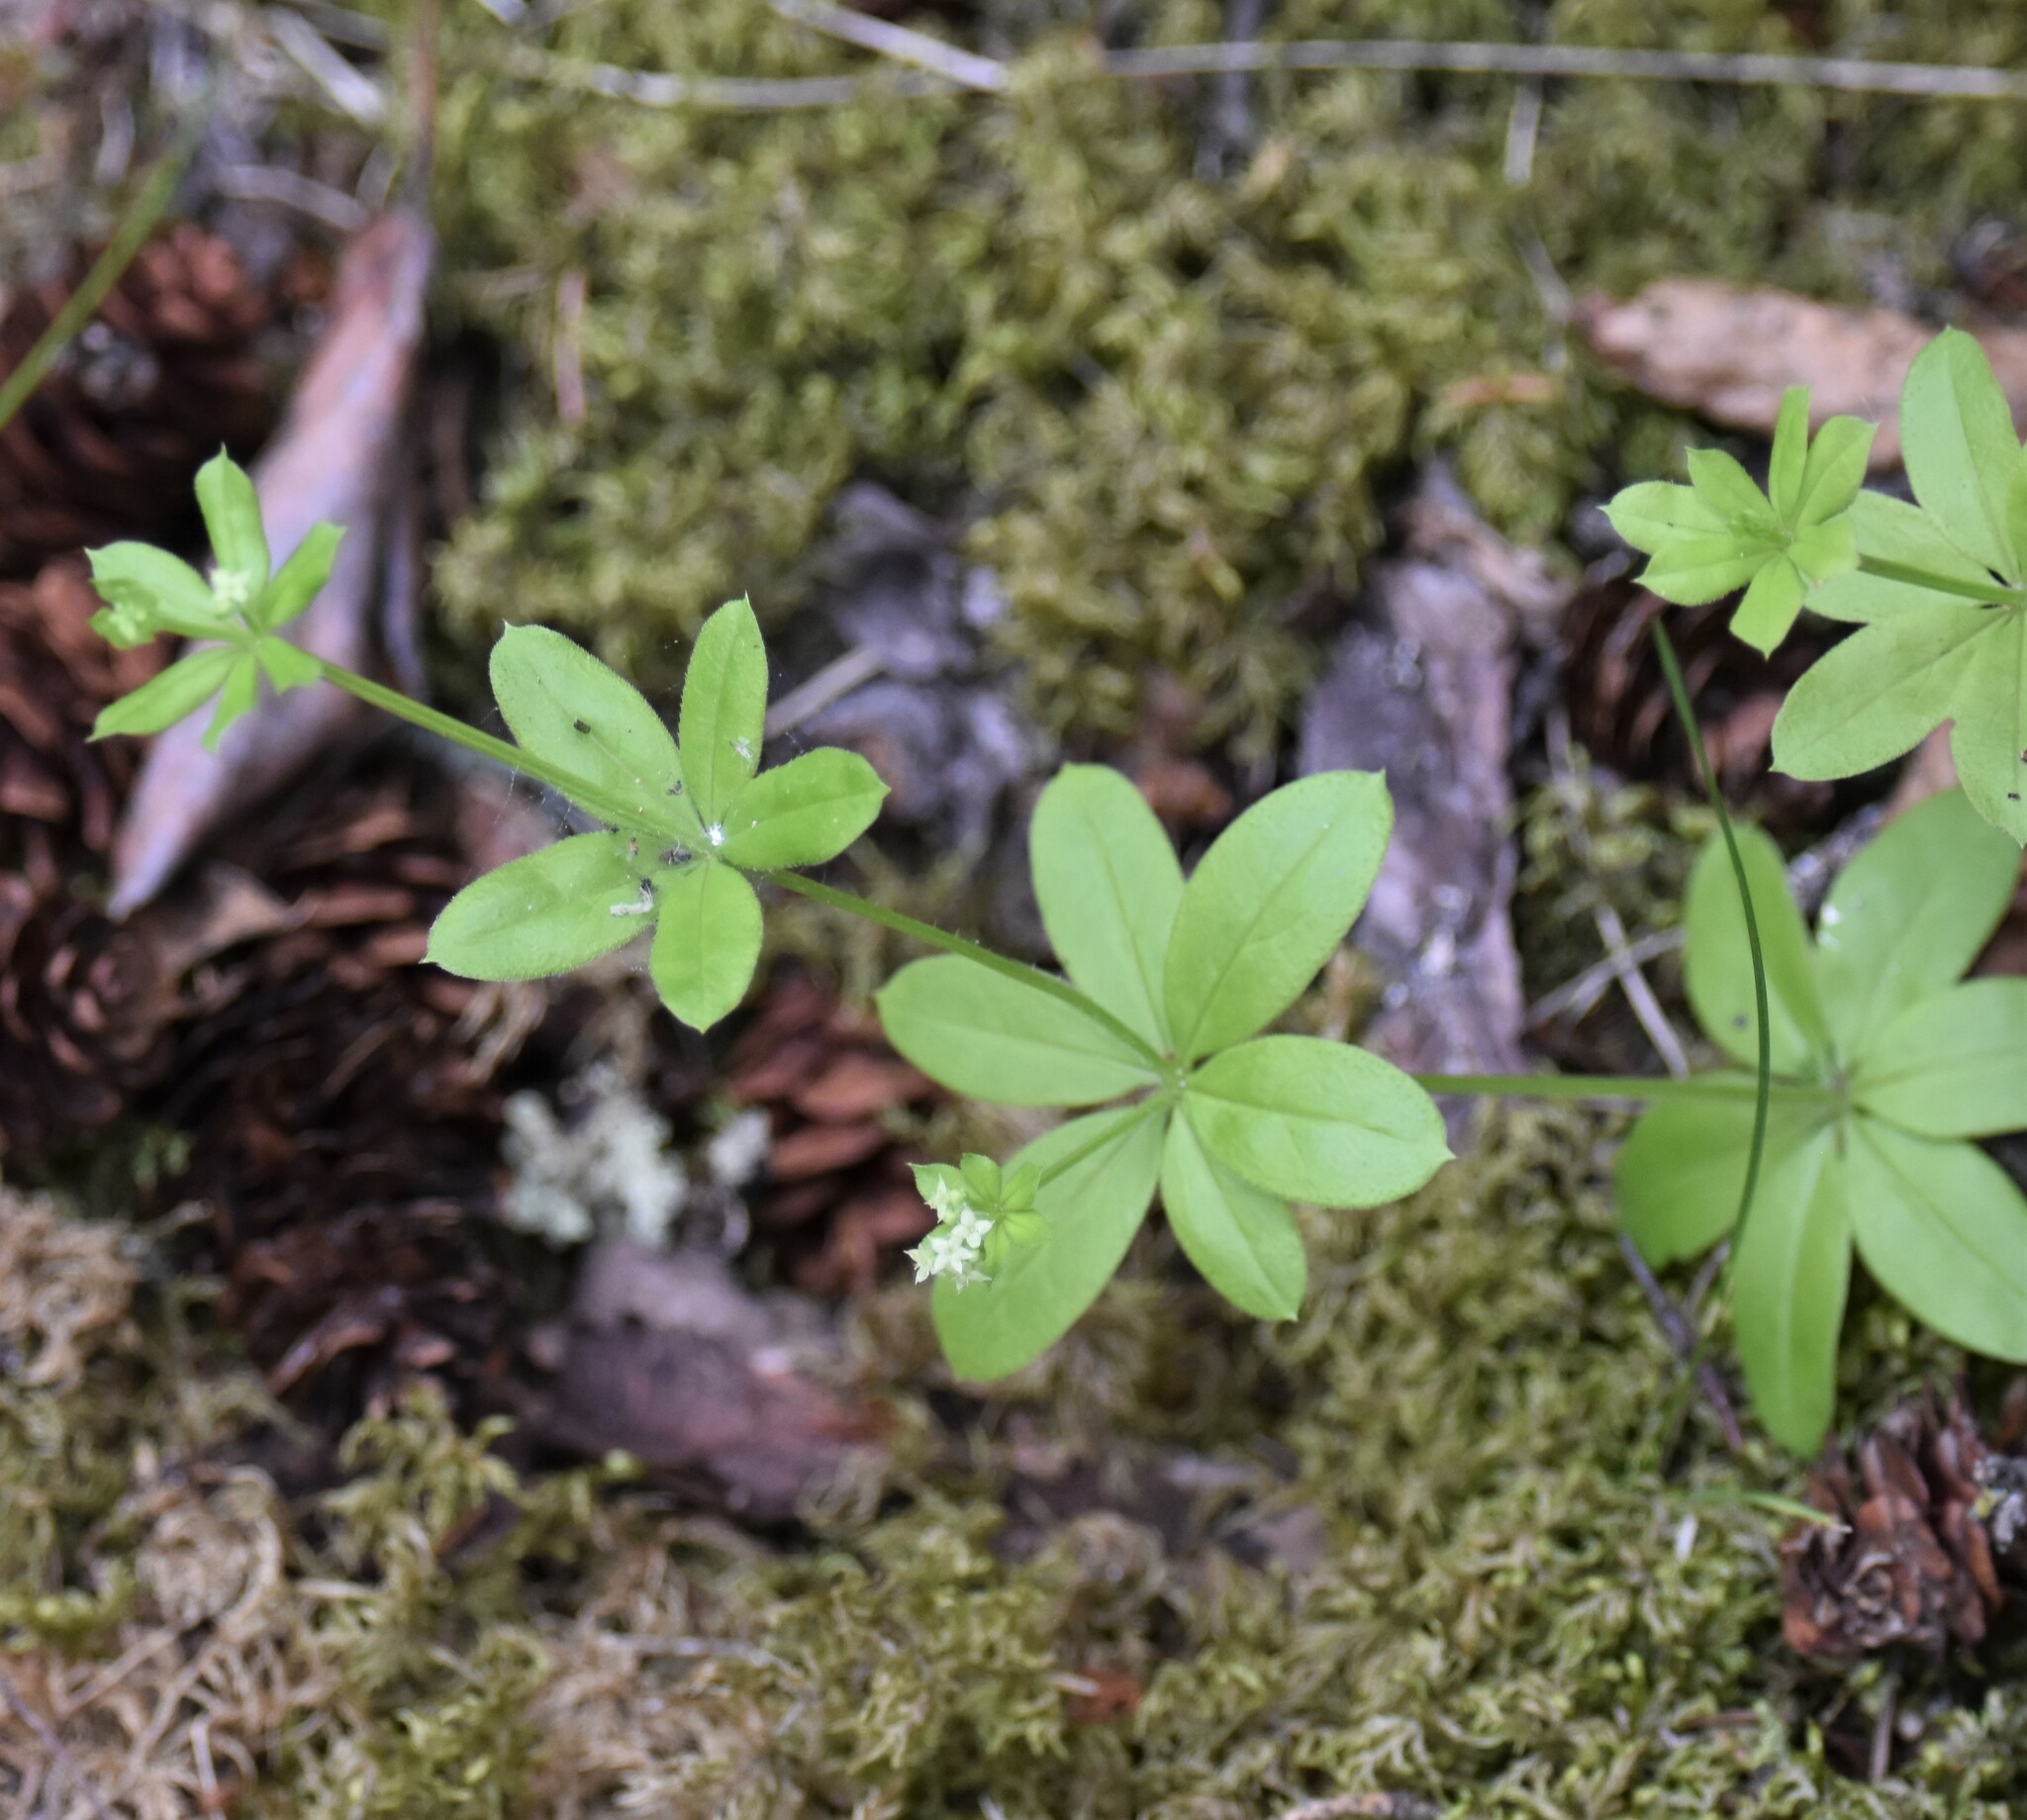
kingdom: Plantae
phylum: Tracheophyta
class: Magnoliopsida
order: Gentianales
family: Rubiaceae
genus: Galium
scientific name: Galium triflorum
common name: Fragrant bedstraw
